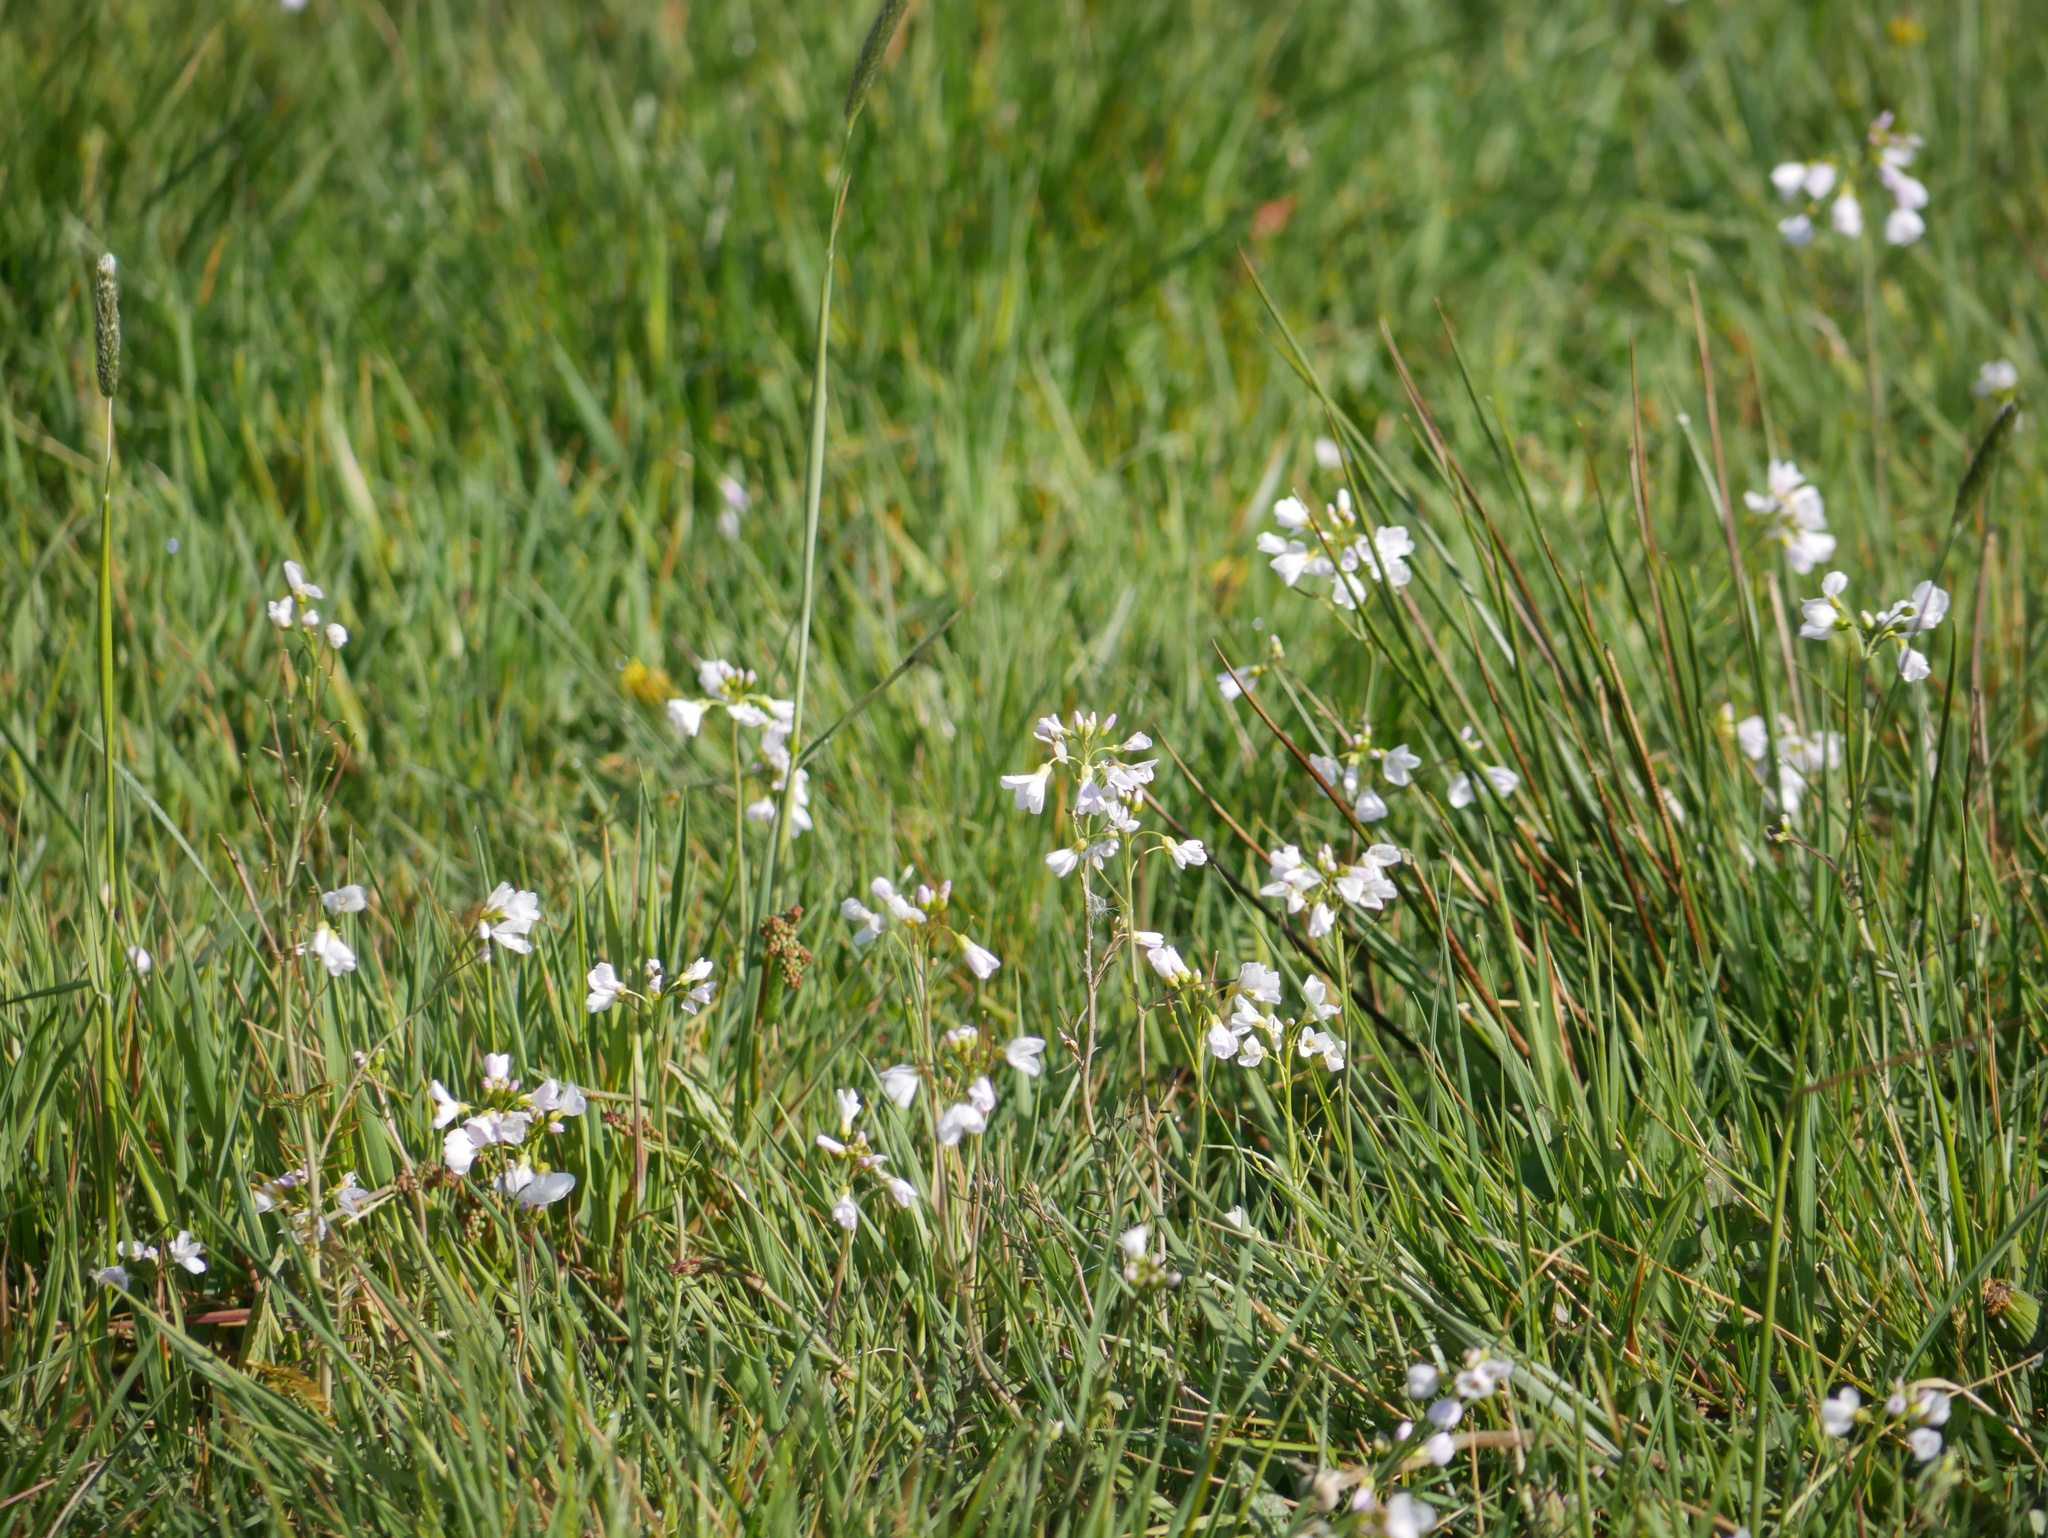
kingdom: Plantae
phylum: Tracheophyta
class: Magnoliopsida
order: Brassicales
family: Brassicaceae
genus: Cardamine
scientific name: Cardamine pratensis
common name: Cuckoo flower
